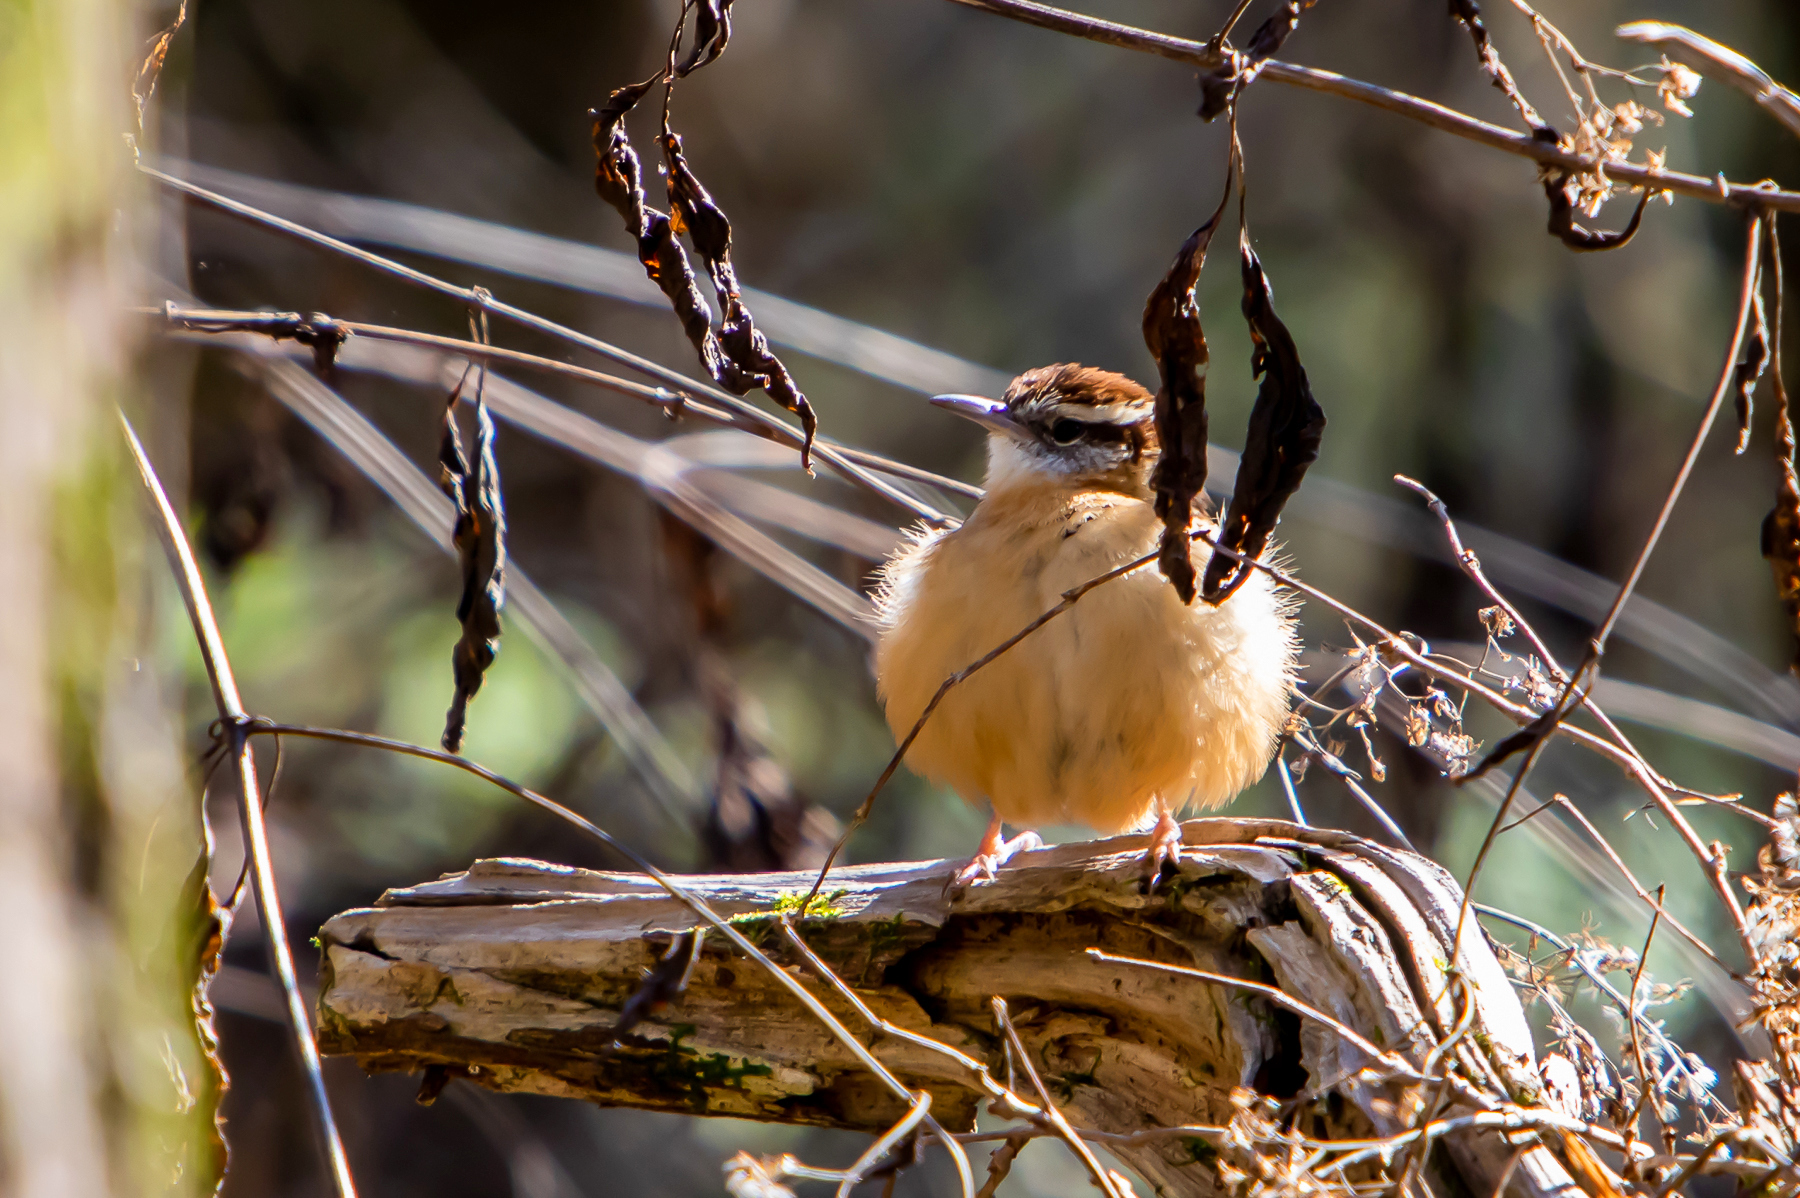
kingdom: Animalia
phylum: Chordata
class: Aves
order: Passeriformes
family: Troglodytidae
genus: Thryothorus
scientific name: Thryothorus ludovicianus
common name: Carolina wren
